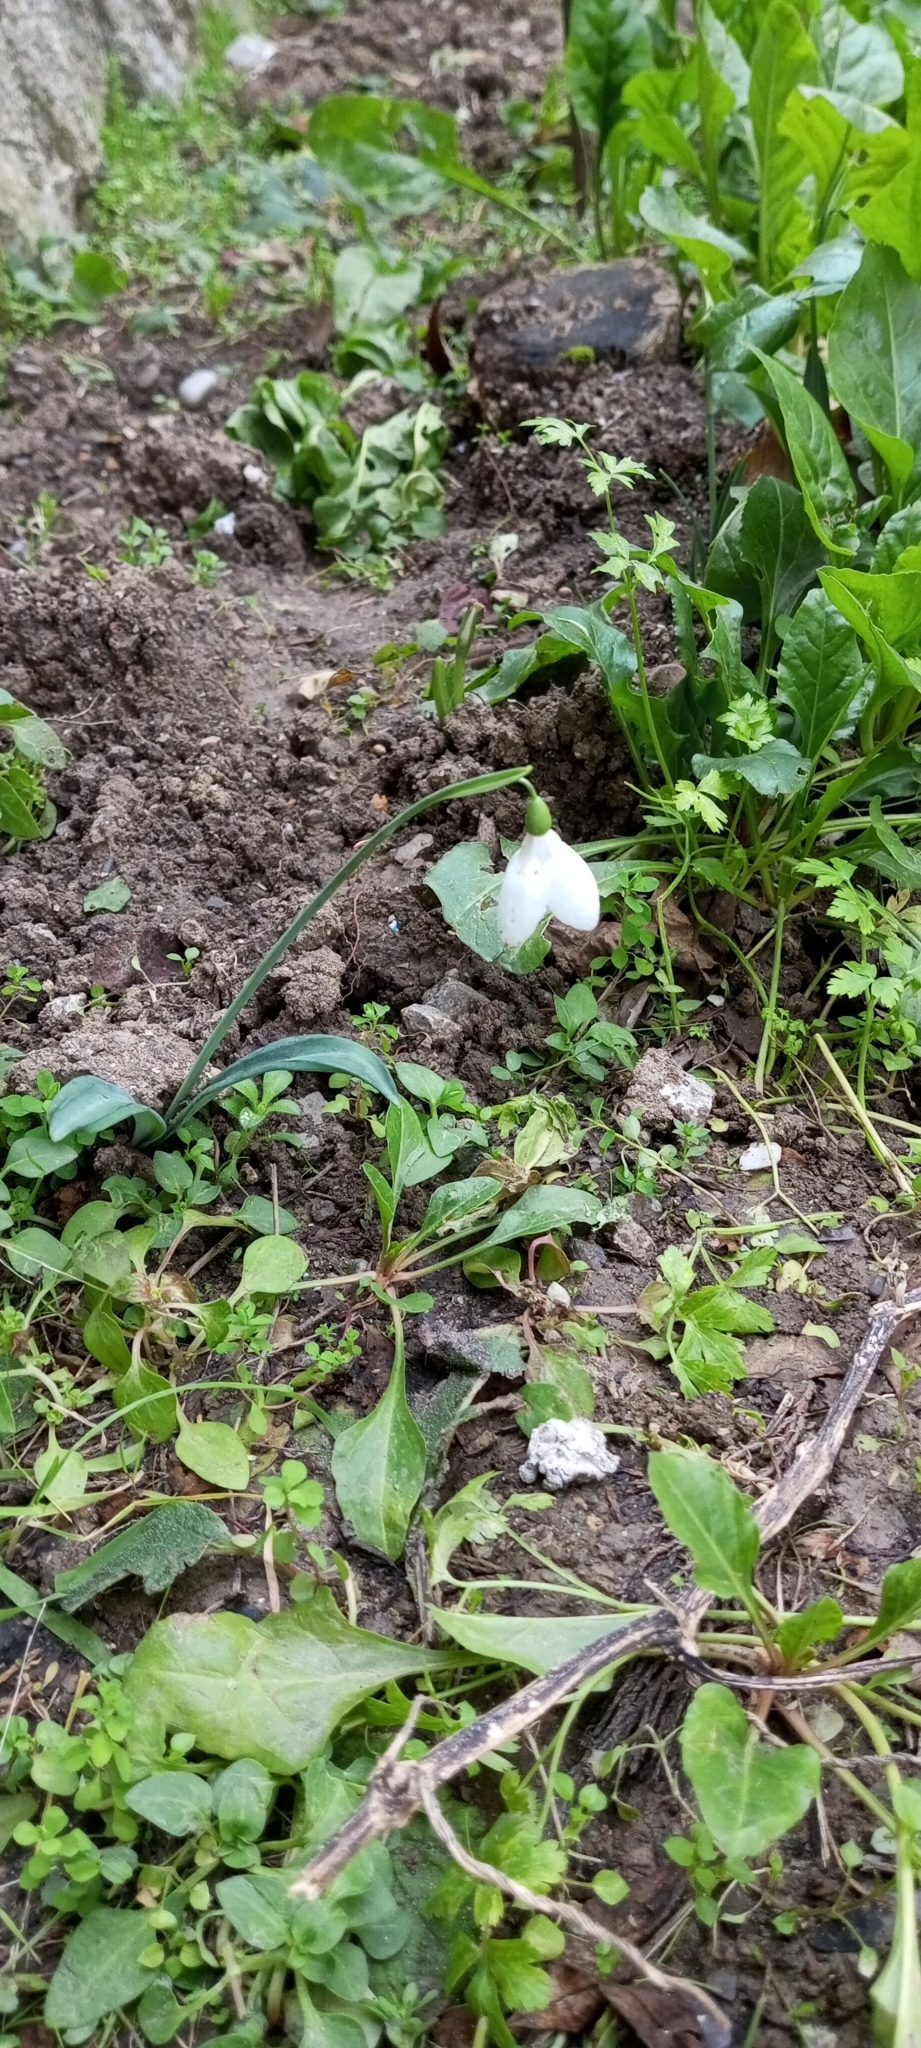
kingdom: Plantae
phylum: Tracheophyta
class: Liliopsida
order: Asparagales
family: Amaryllidaceae
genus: Galanthus
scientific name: Galanthus plicatus
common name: Pleated snowdrop
